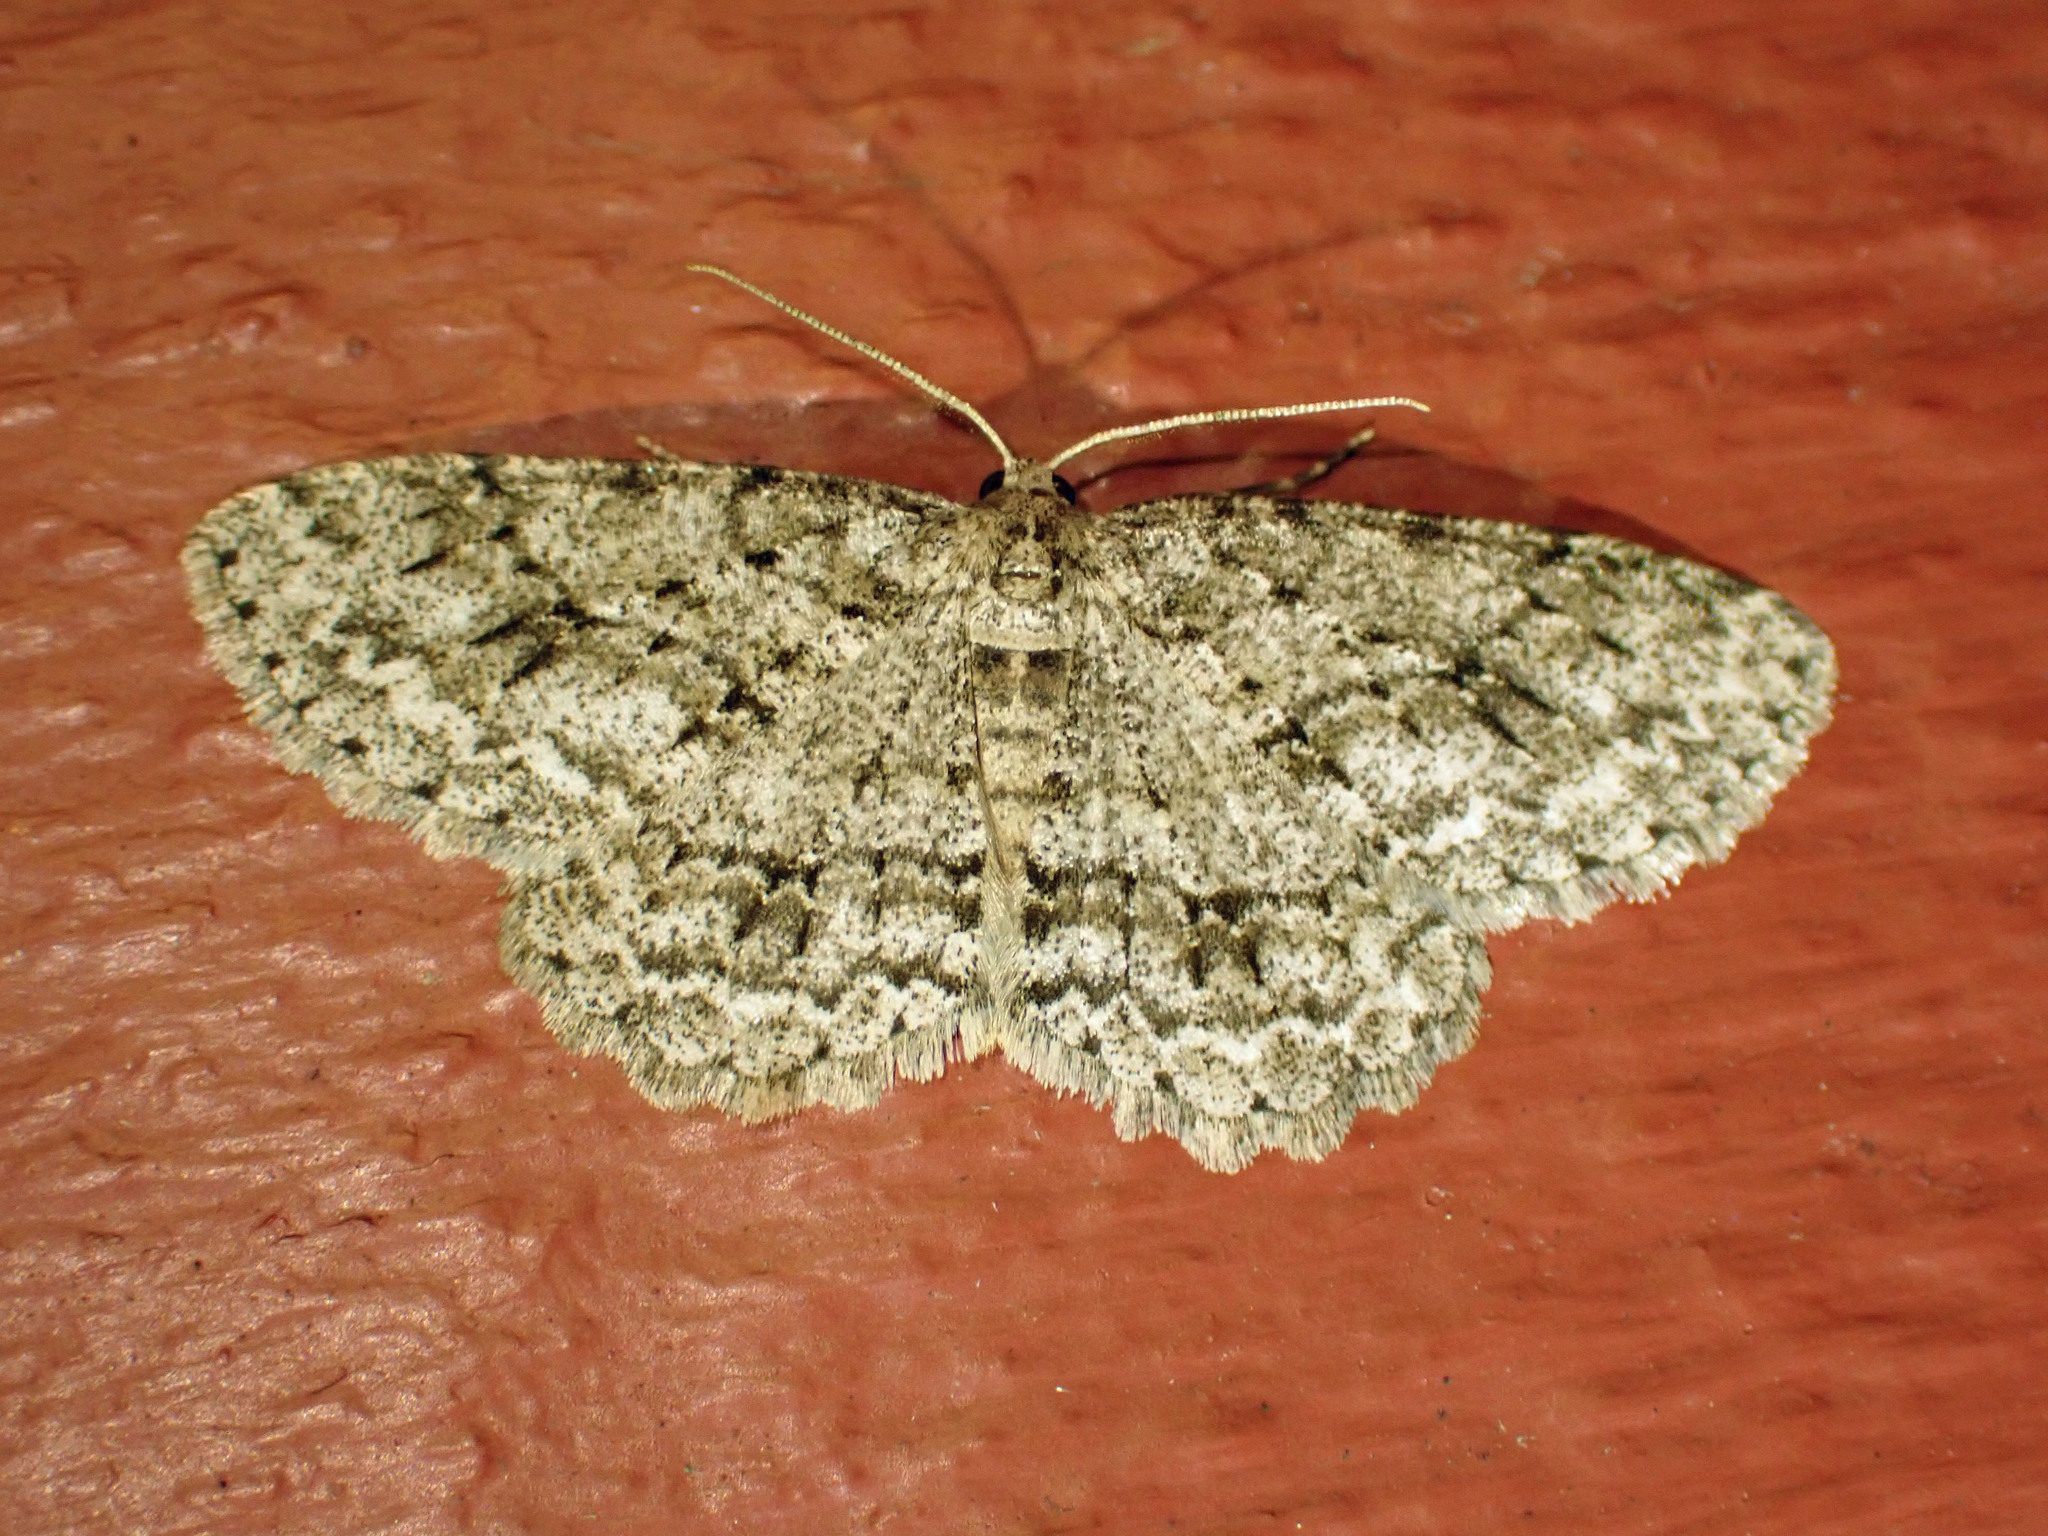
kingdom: Animalia
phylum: Arthropoda
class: Insecta
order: Lepidoptera
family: Geometridae
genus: Ectropis
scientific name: Ectropis crepuscularia
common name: Engrailed
